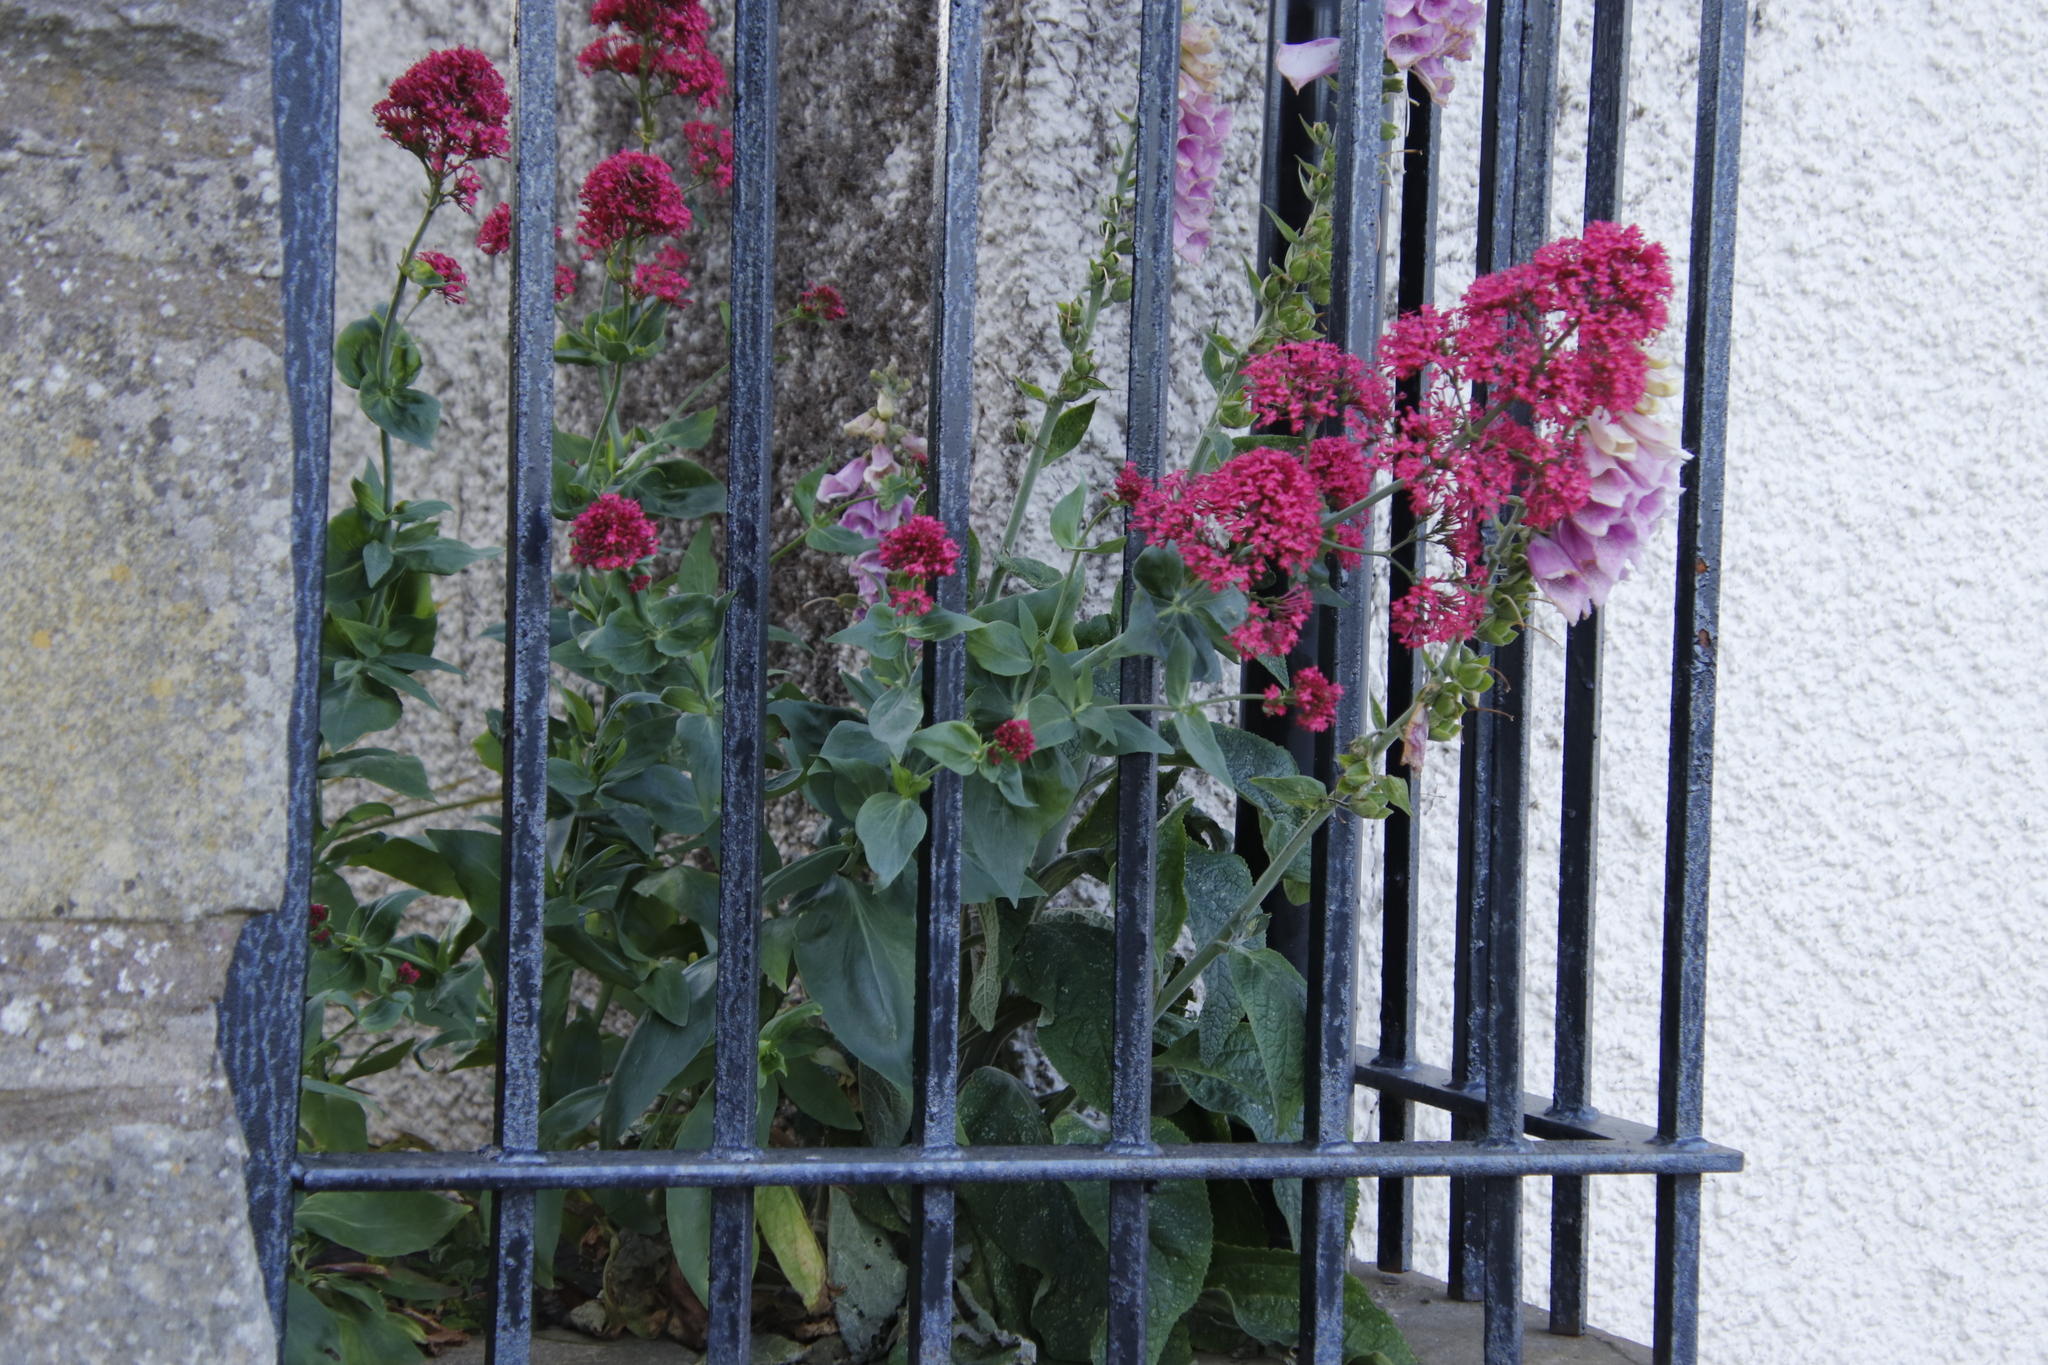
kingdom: Plantae
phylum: Tracheophyta
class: Magnoliopsida
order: Dipsacales
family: Caprifoliaceae
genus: Centranthus
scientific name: Centranthus ruber
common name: Red valerian
